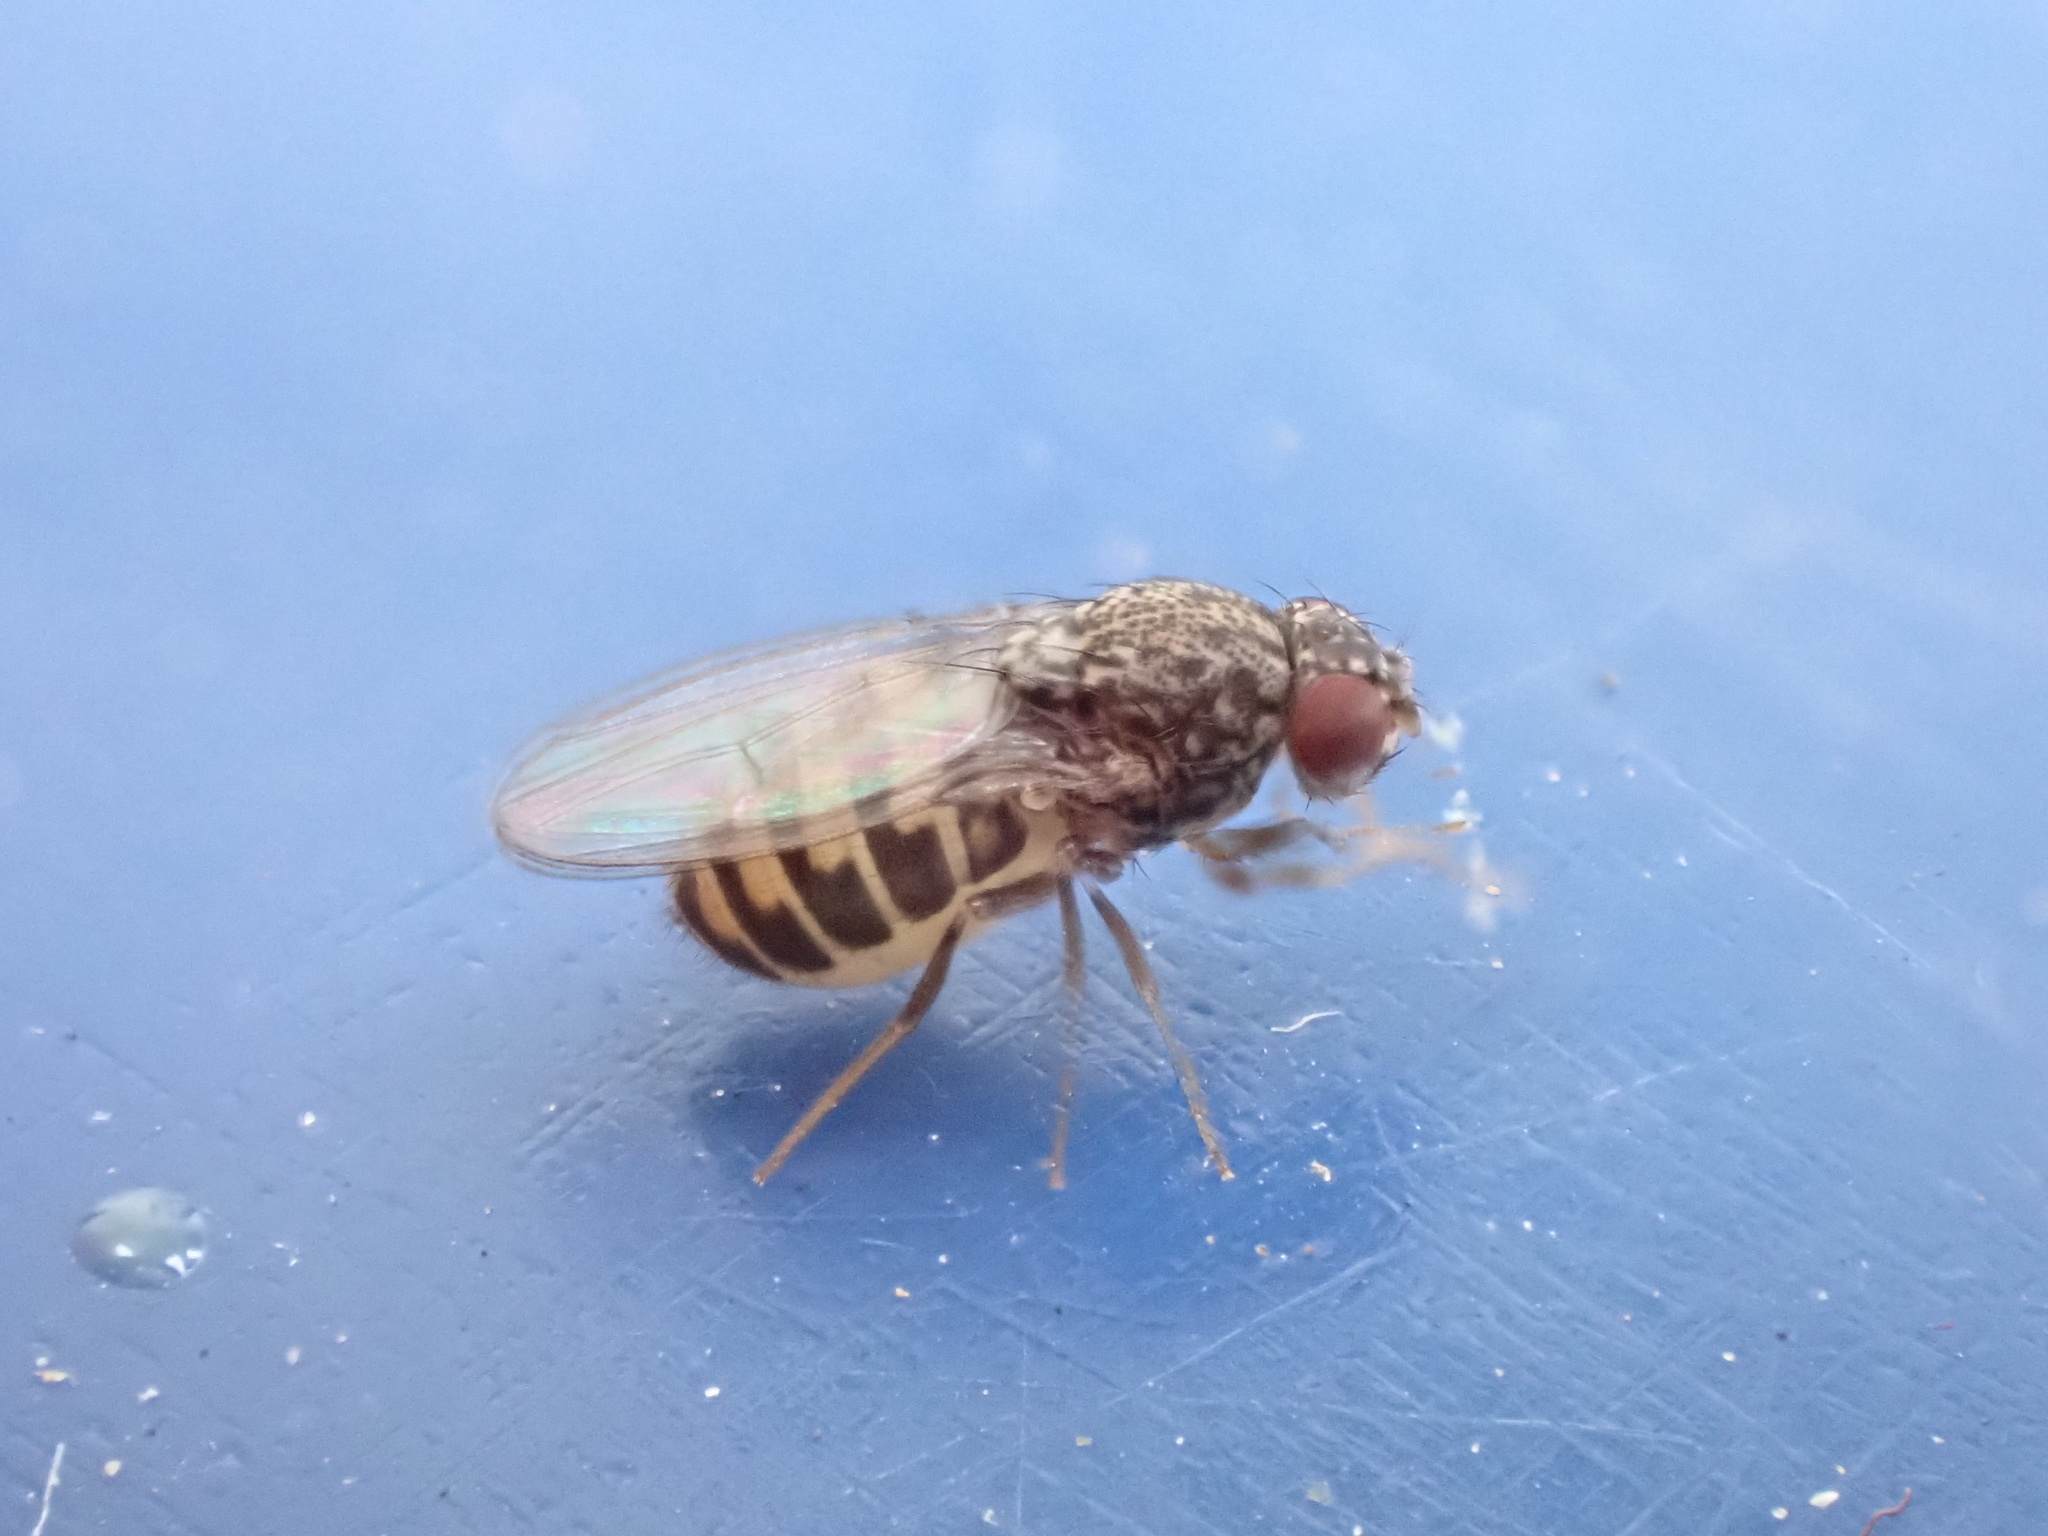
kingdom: Animalia
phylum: Arthropoda
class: Insecta
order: Diptera
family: Drosophilidae
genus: Drosophila
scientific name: Drosophila hydei
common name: Pomace fly
